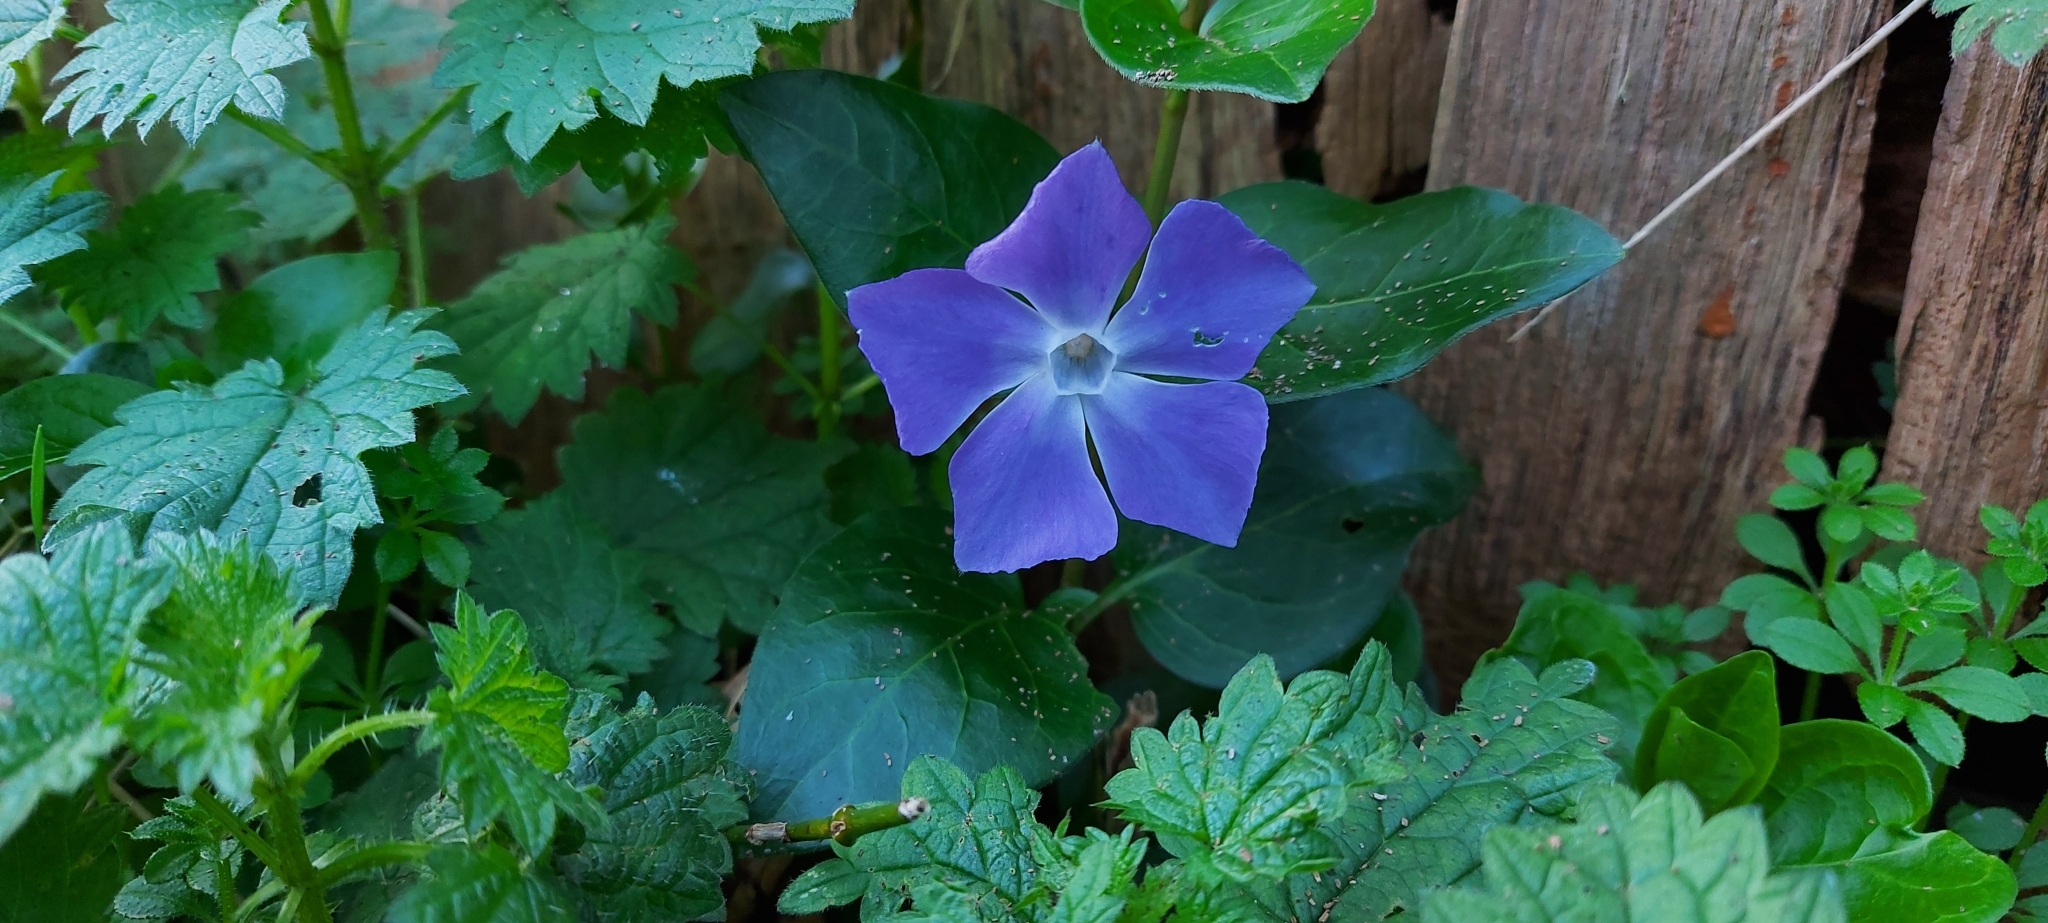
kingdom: Plantae
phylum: Tracheophyta
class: Magnoliopsida
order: Gentianales
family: Apocynaceae
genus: Vinca
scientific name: Vinca major
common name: Greater periwinkle
